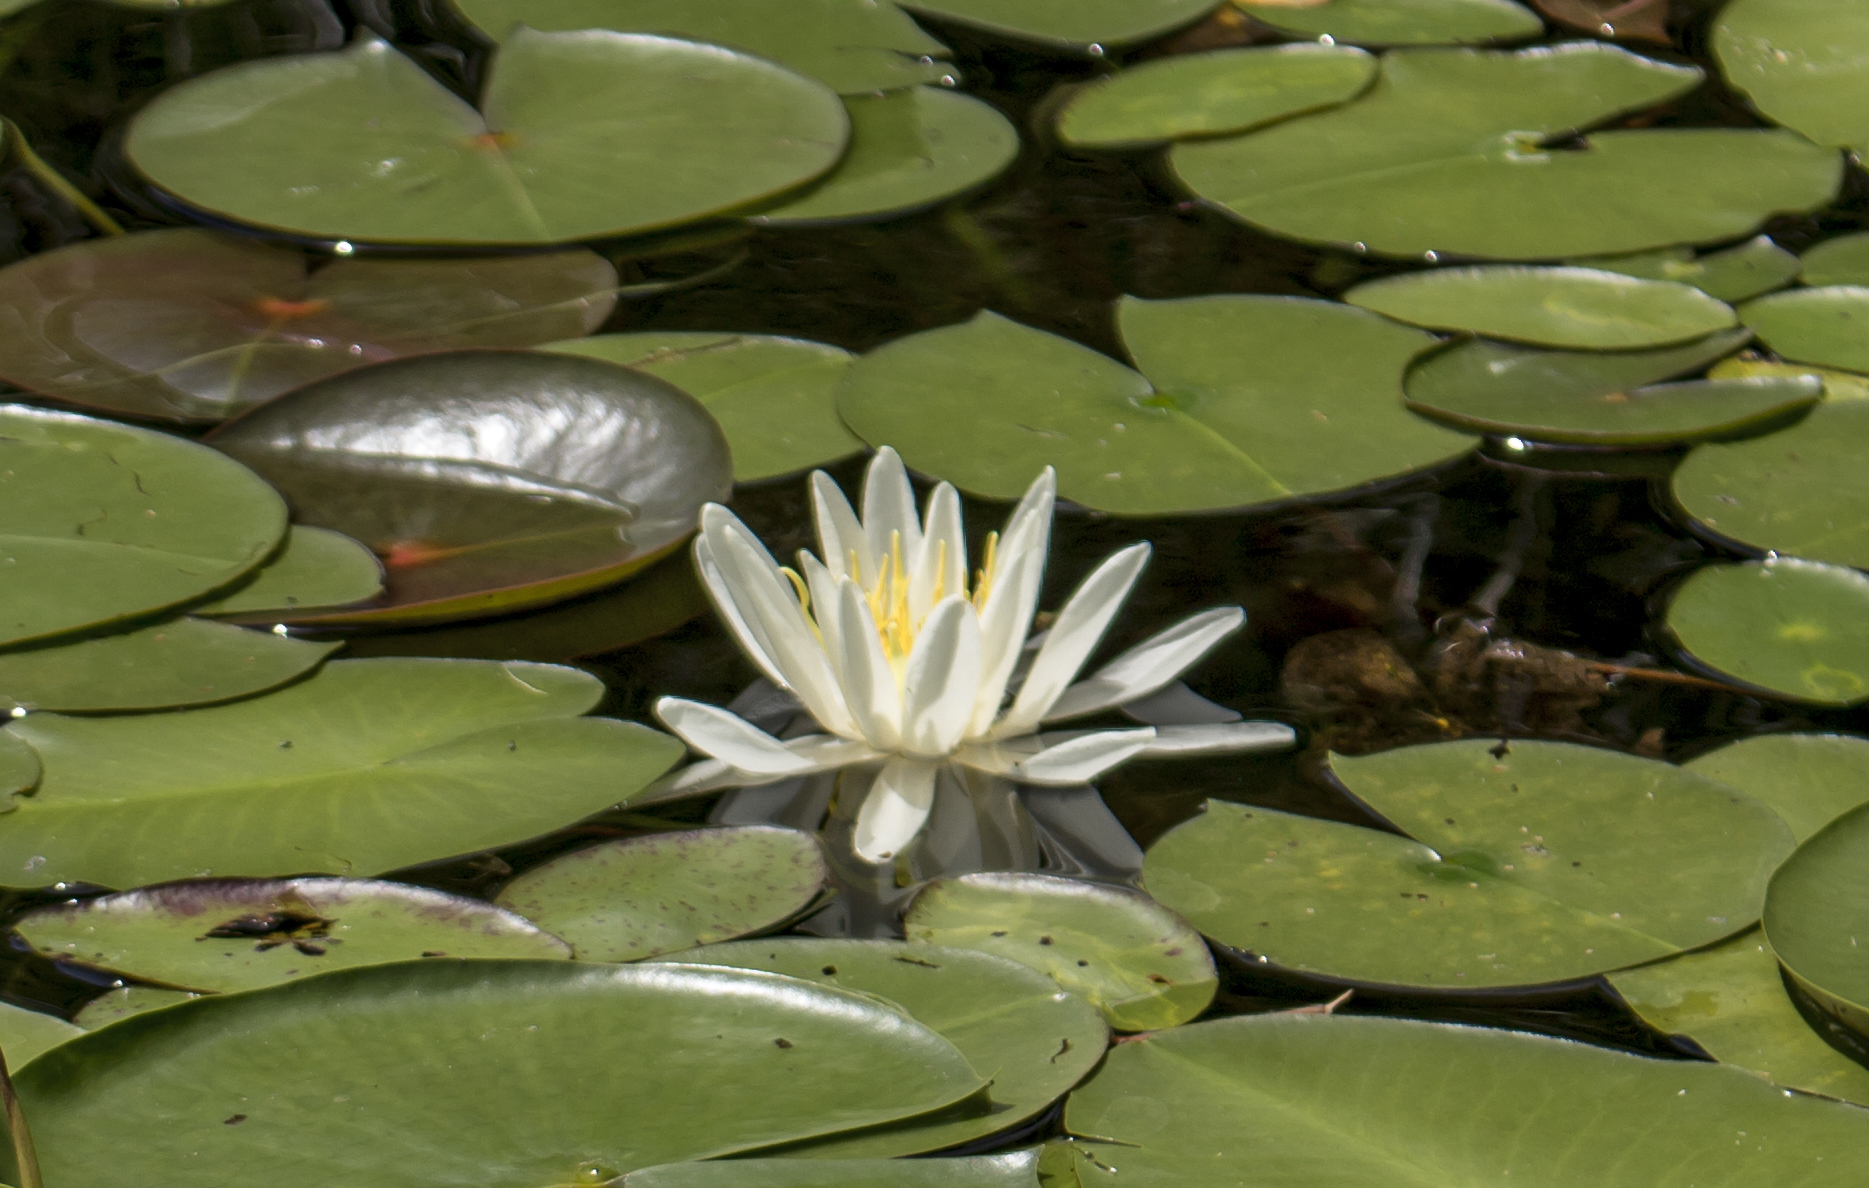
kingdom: Plantae
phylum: Tracheophyta
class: Magnoliopsida
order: Nymphaeales
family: Nymphaeaceae
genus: Nymphaea
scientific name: Nymphaea odorata
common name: Fragrant water-lily
